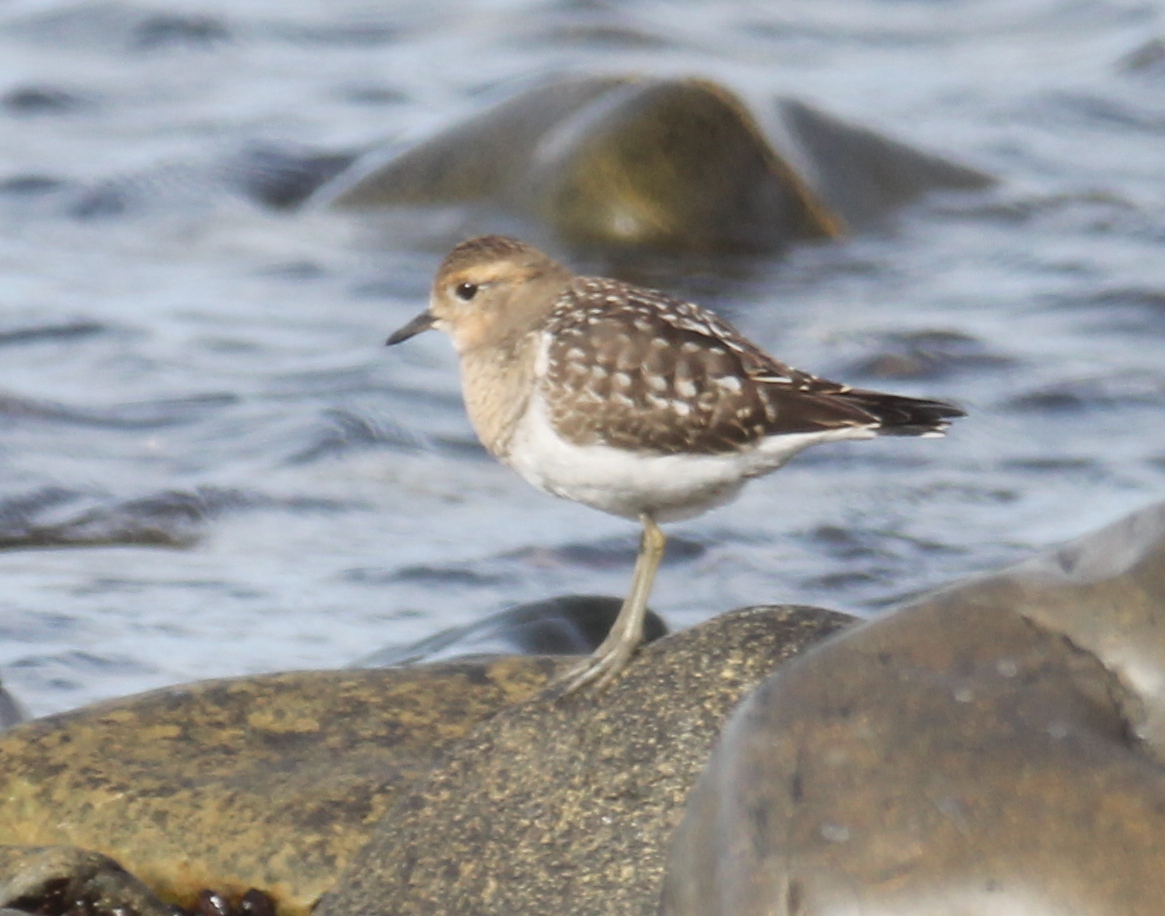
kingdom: Animalia
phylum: Chordata
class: Aves
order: Charadriiformes
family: Charadriidae
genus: Charadrius
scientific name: Charadrius modestus
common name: Rufous-chested plover
